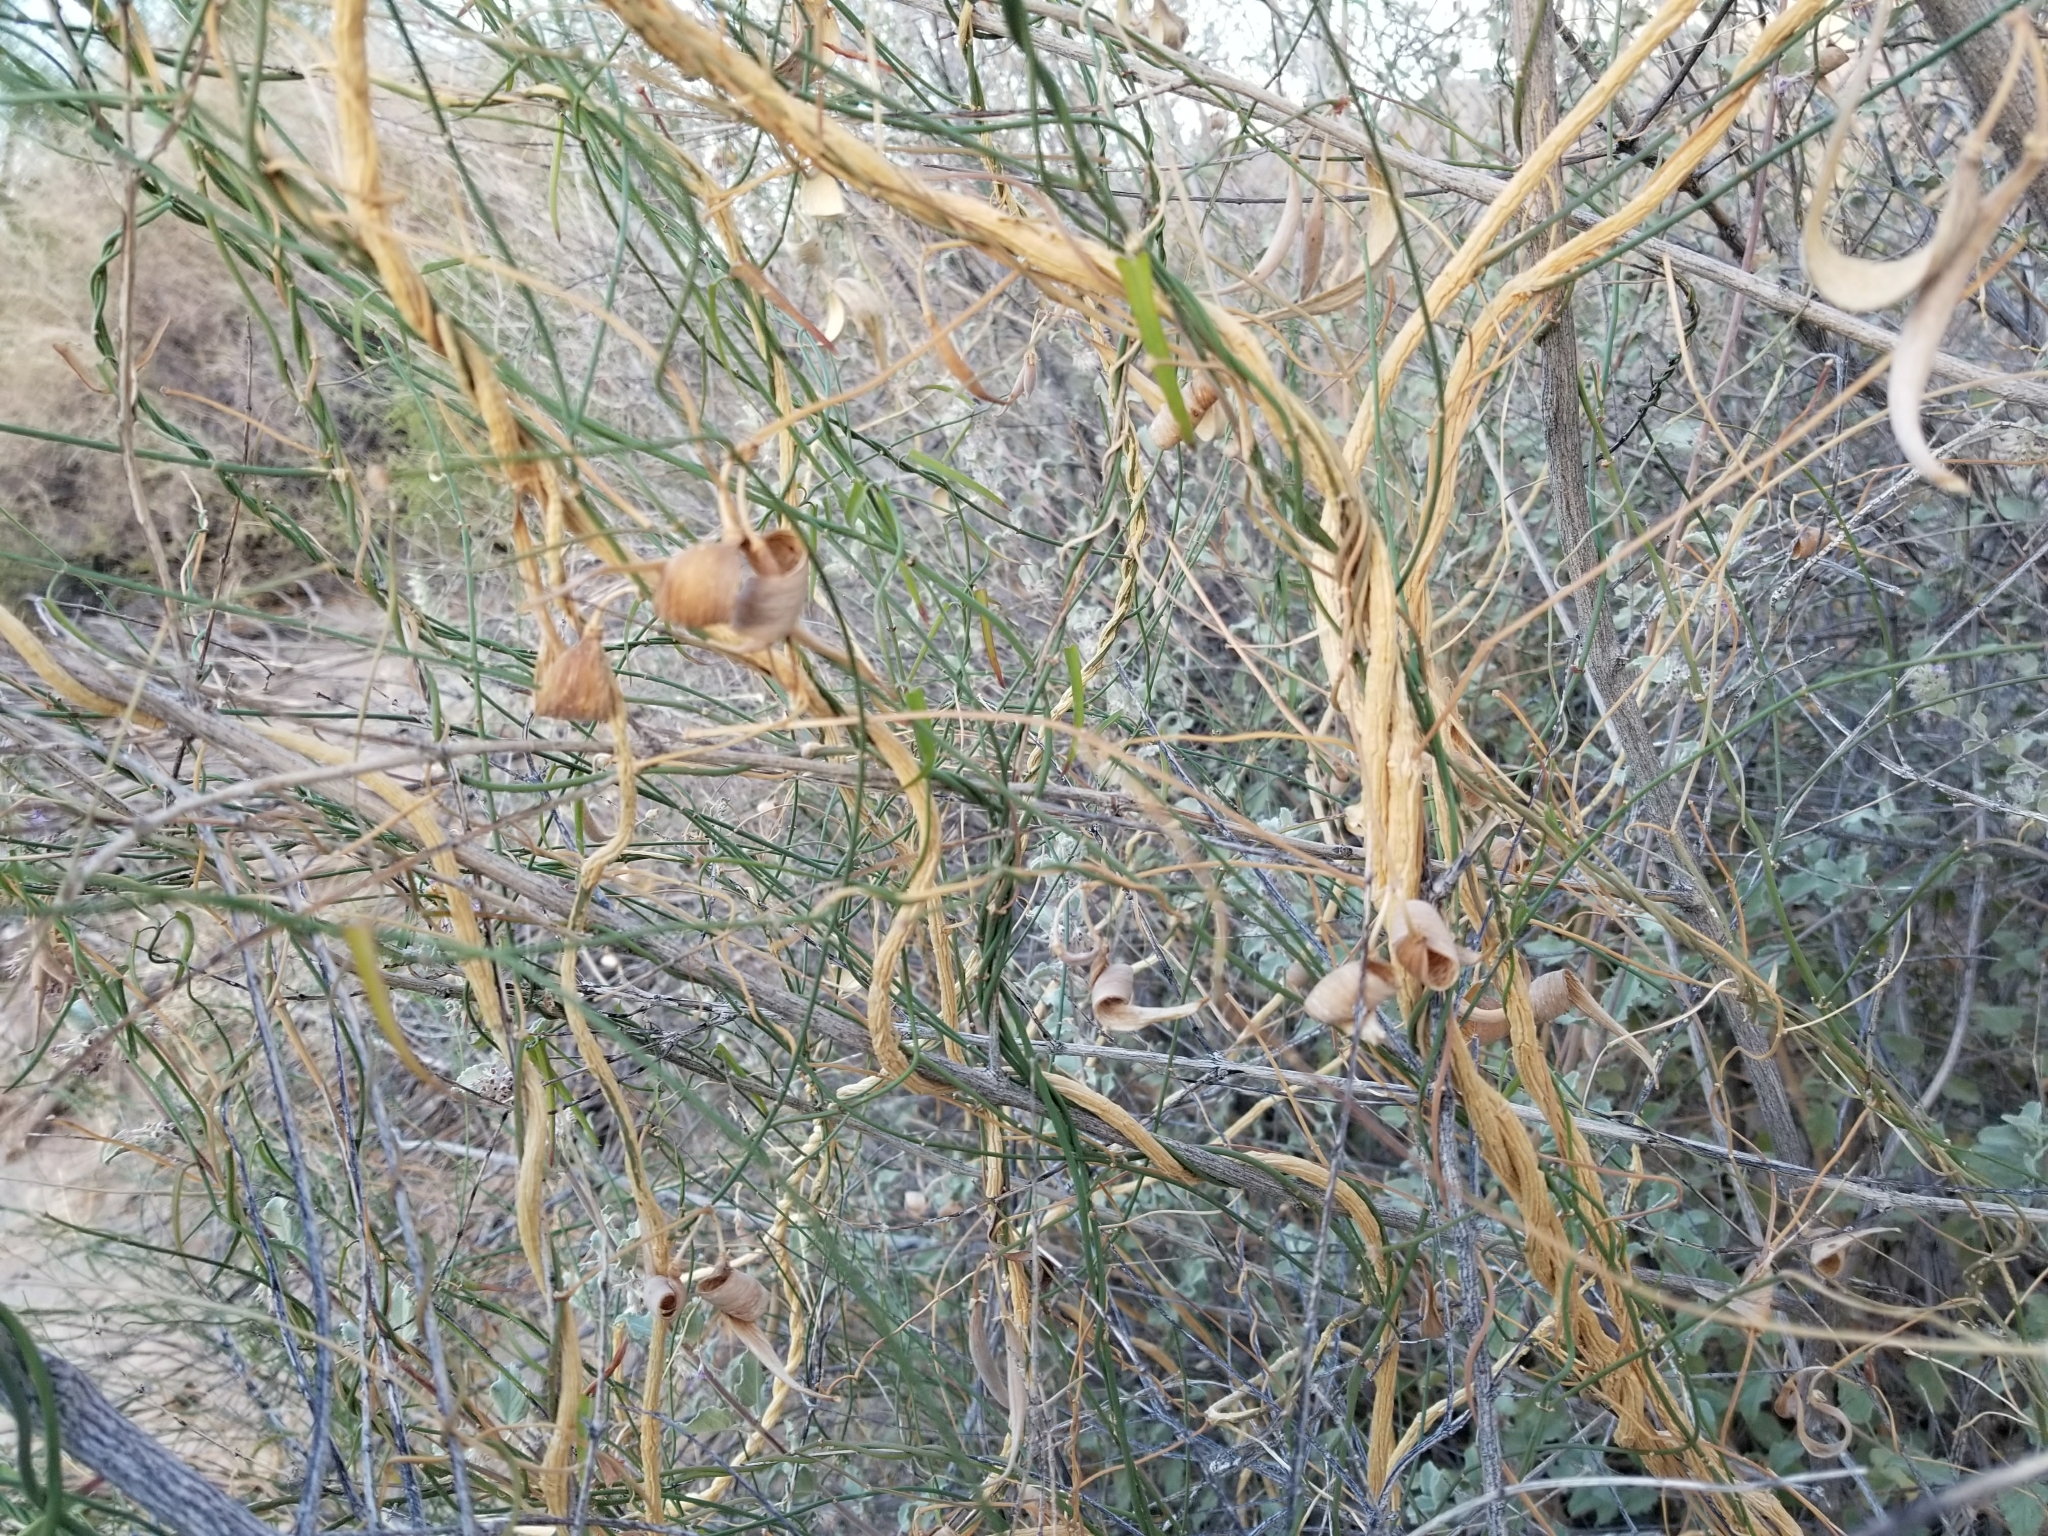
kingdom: Plantae
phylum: Tracheophyta
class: Magnoliopsida
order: Gentianales
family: Apocynaceae
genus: Funastrum
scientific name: Funastrum heterophyllum
